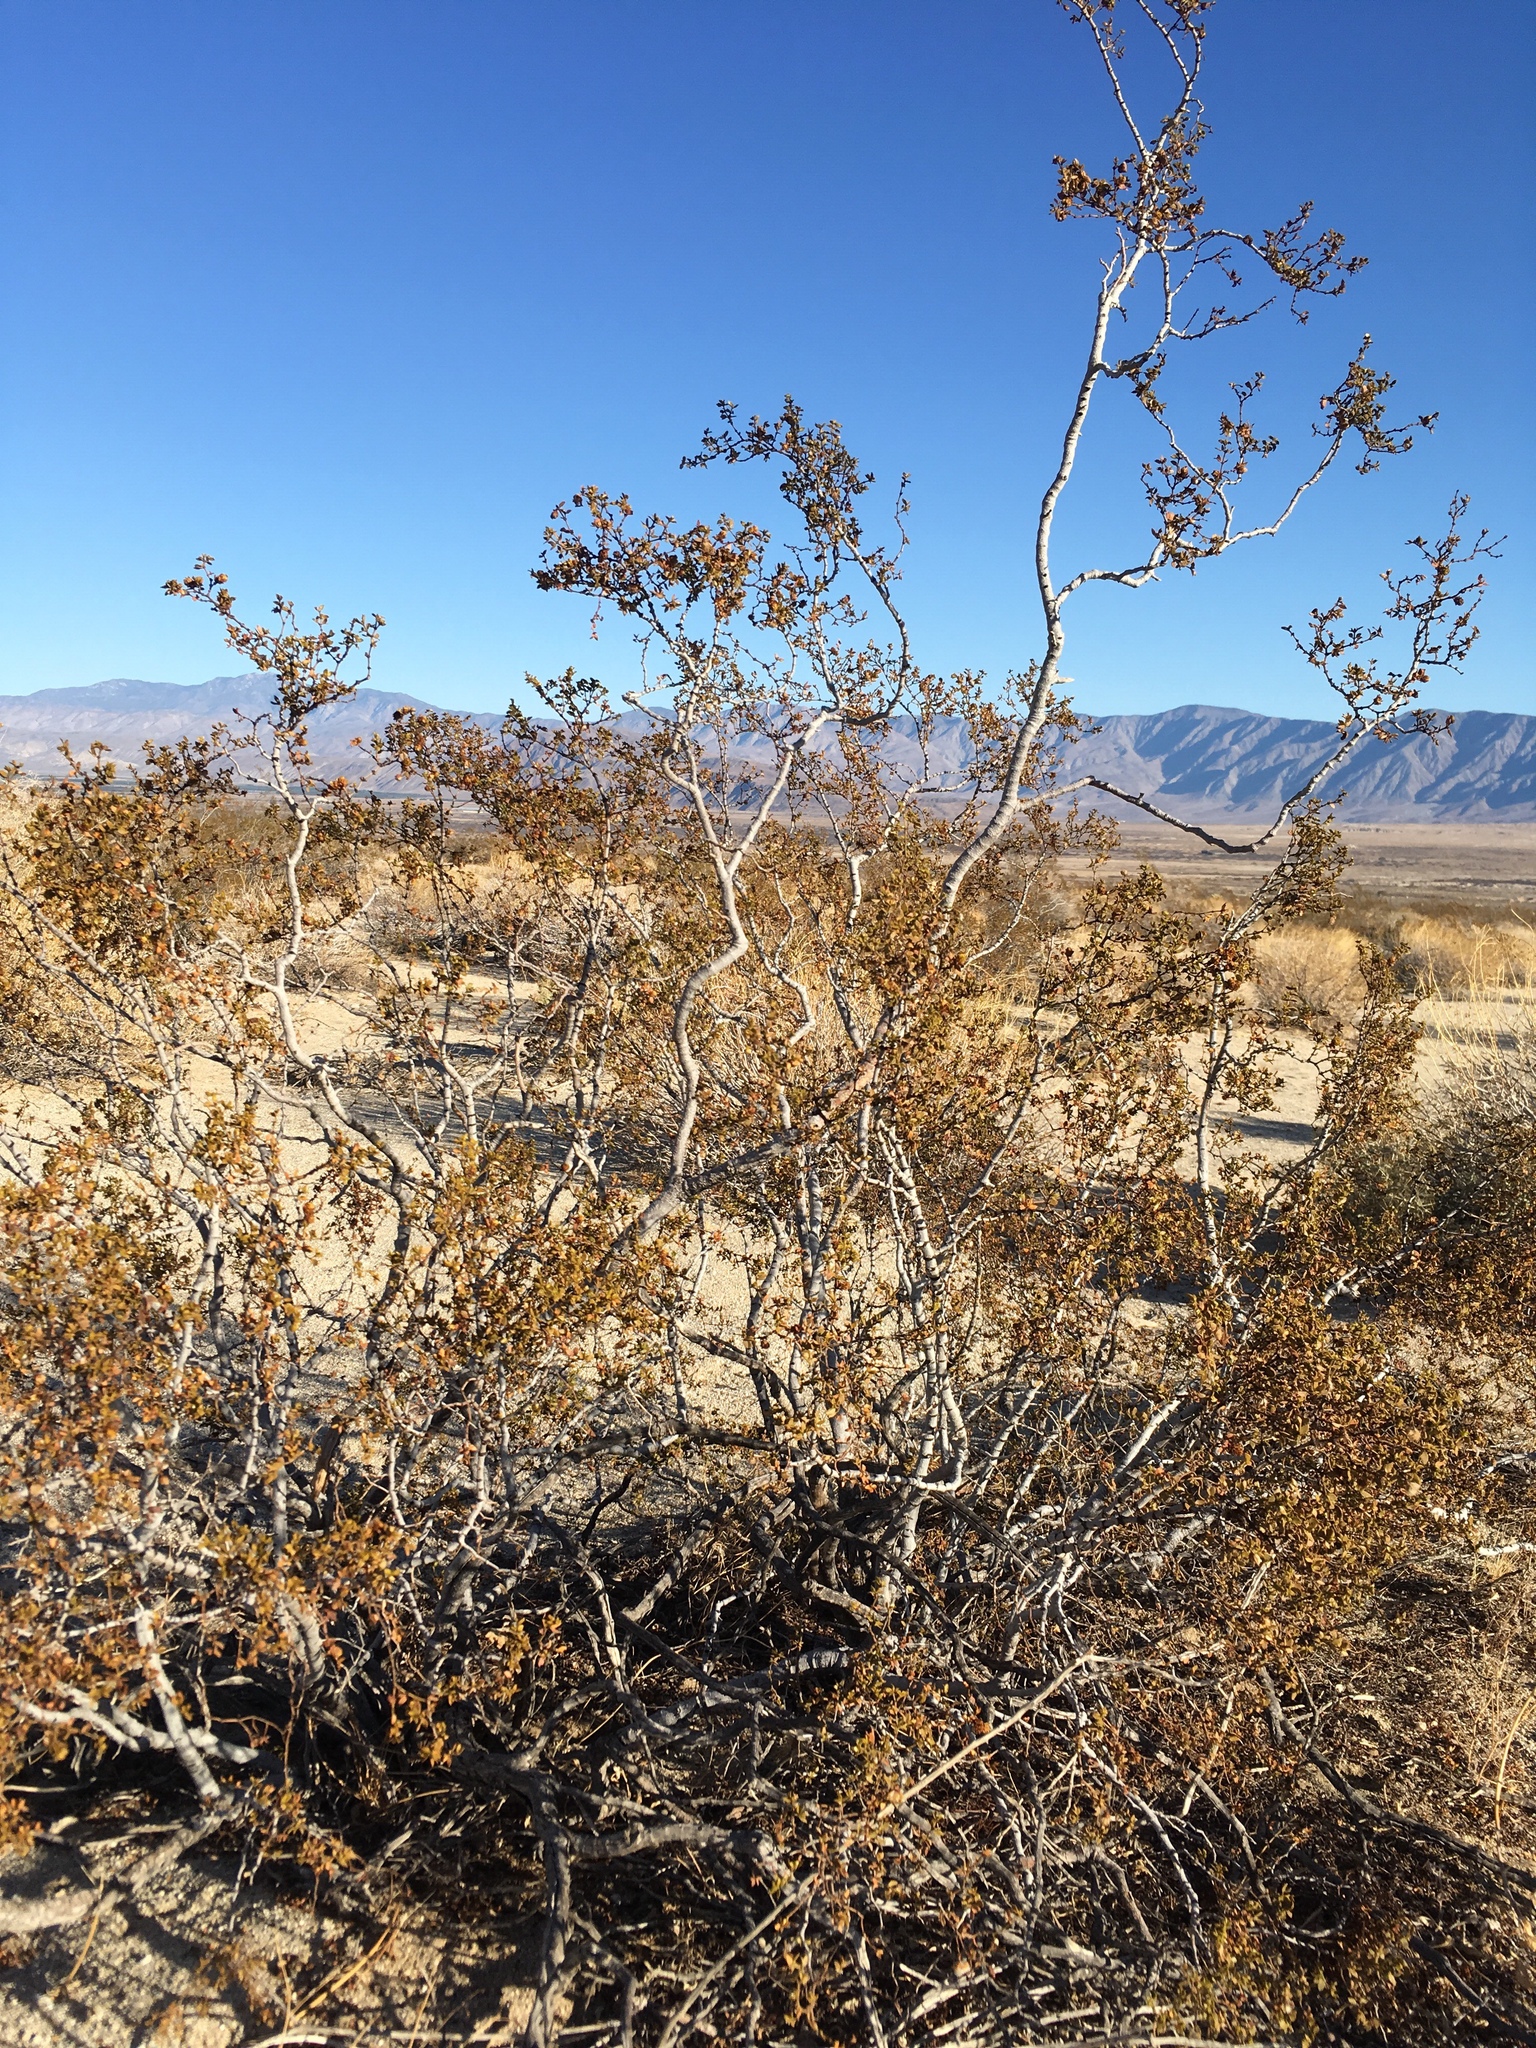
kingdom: Animalia
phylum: Arthropoda
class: Insecta
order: Diptera
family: Cecidomyiidae
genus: Asphondylia
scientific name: Asphondylia auripila
